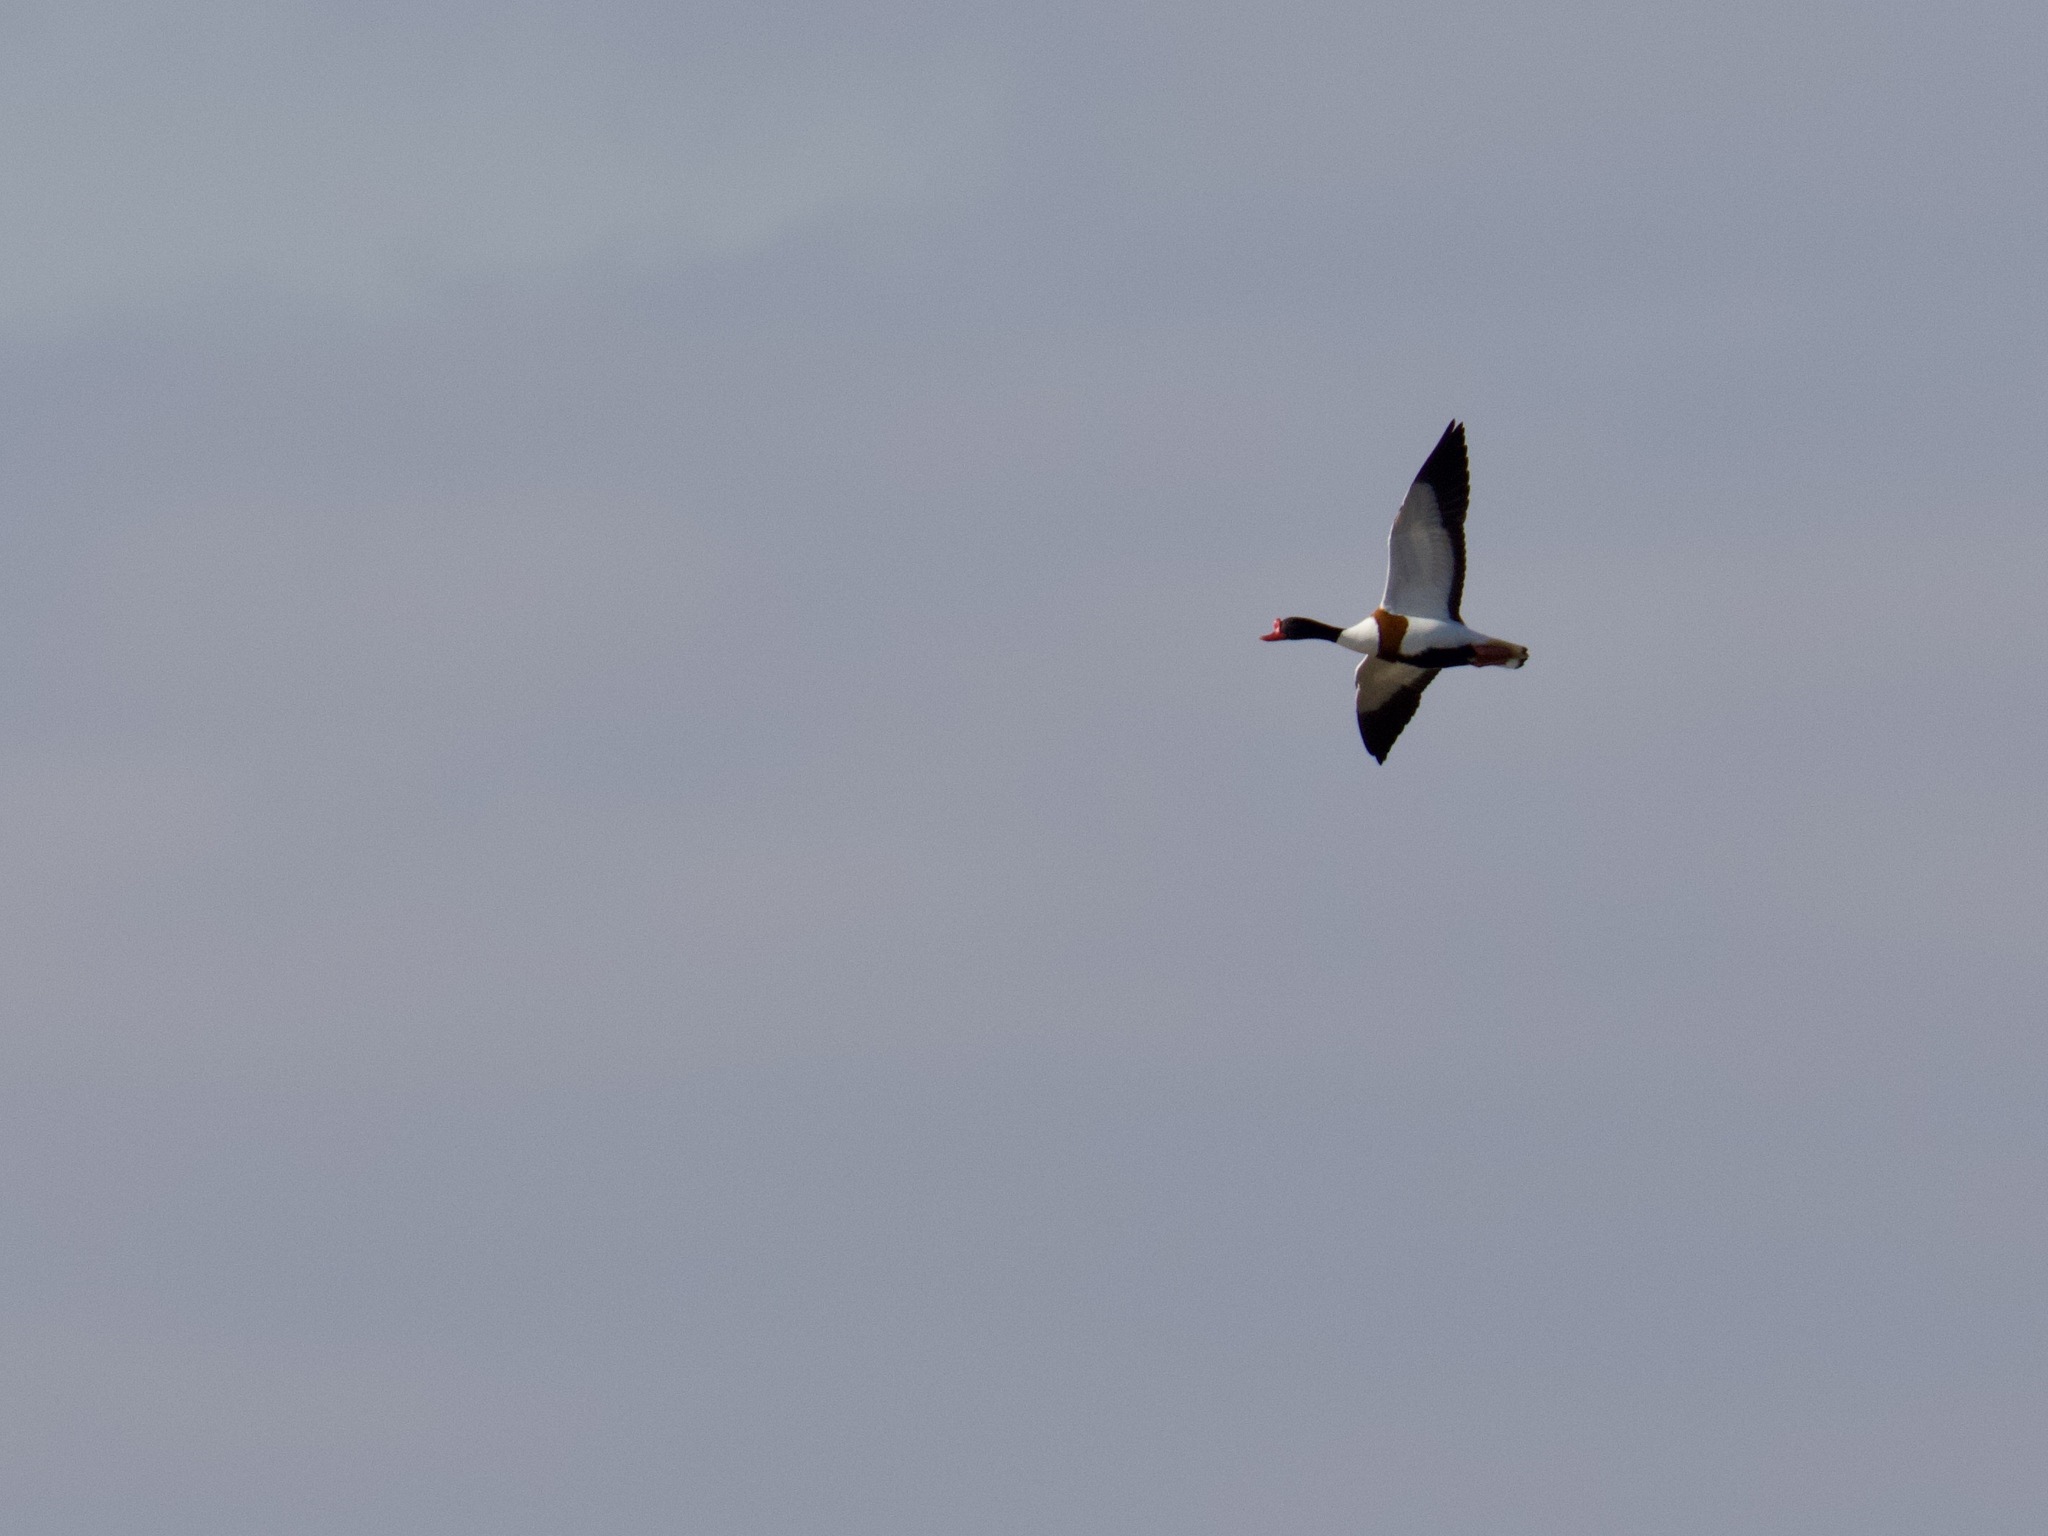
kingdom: Animalia
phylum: Chordata
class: Aves
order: Anseriformes
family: Anatidae
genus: Tadorna
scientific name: Tadorna tadorna
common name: Common shelduck
